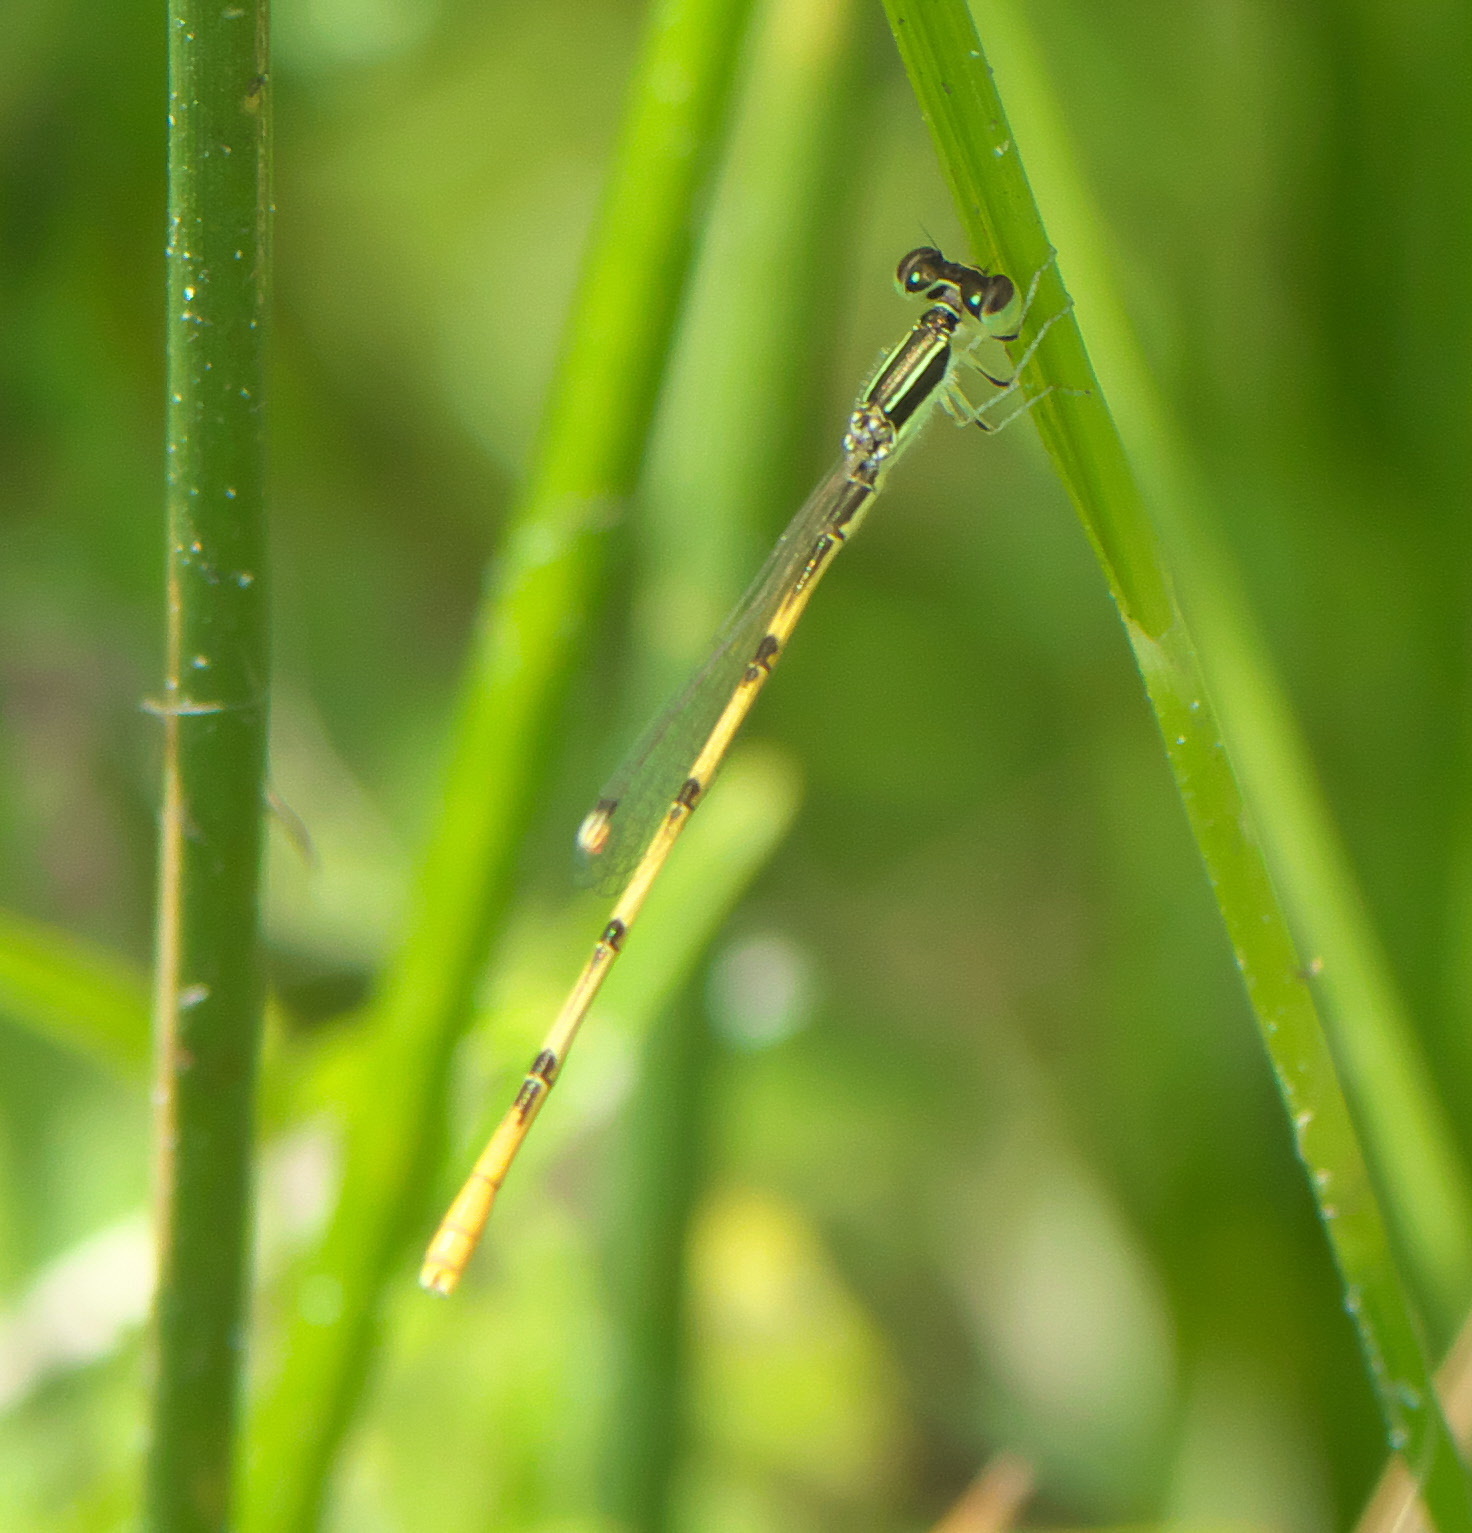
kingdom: Animalia
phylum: Arthropoda
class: Insecta
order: Odonata
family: Coenagrionidae
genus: Ischnura
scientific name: Ischnura hastata
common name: Citrine forktail
